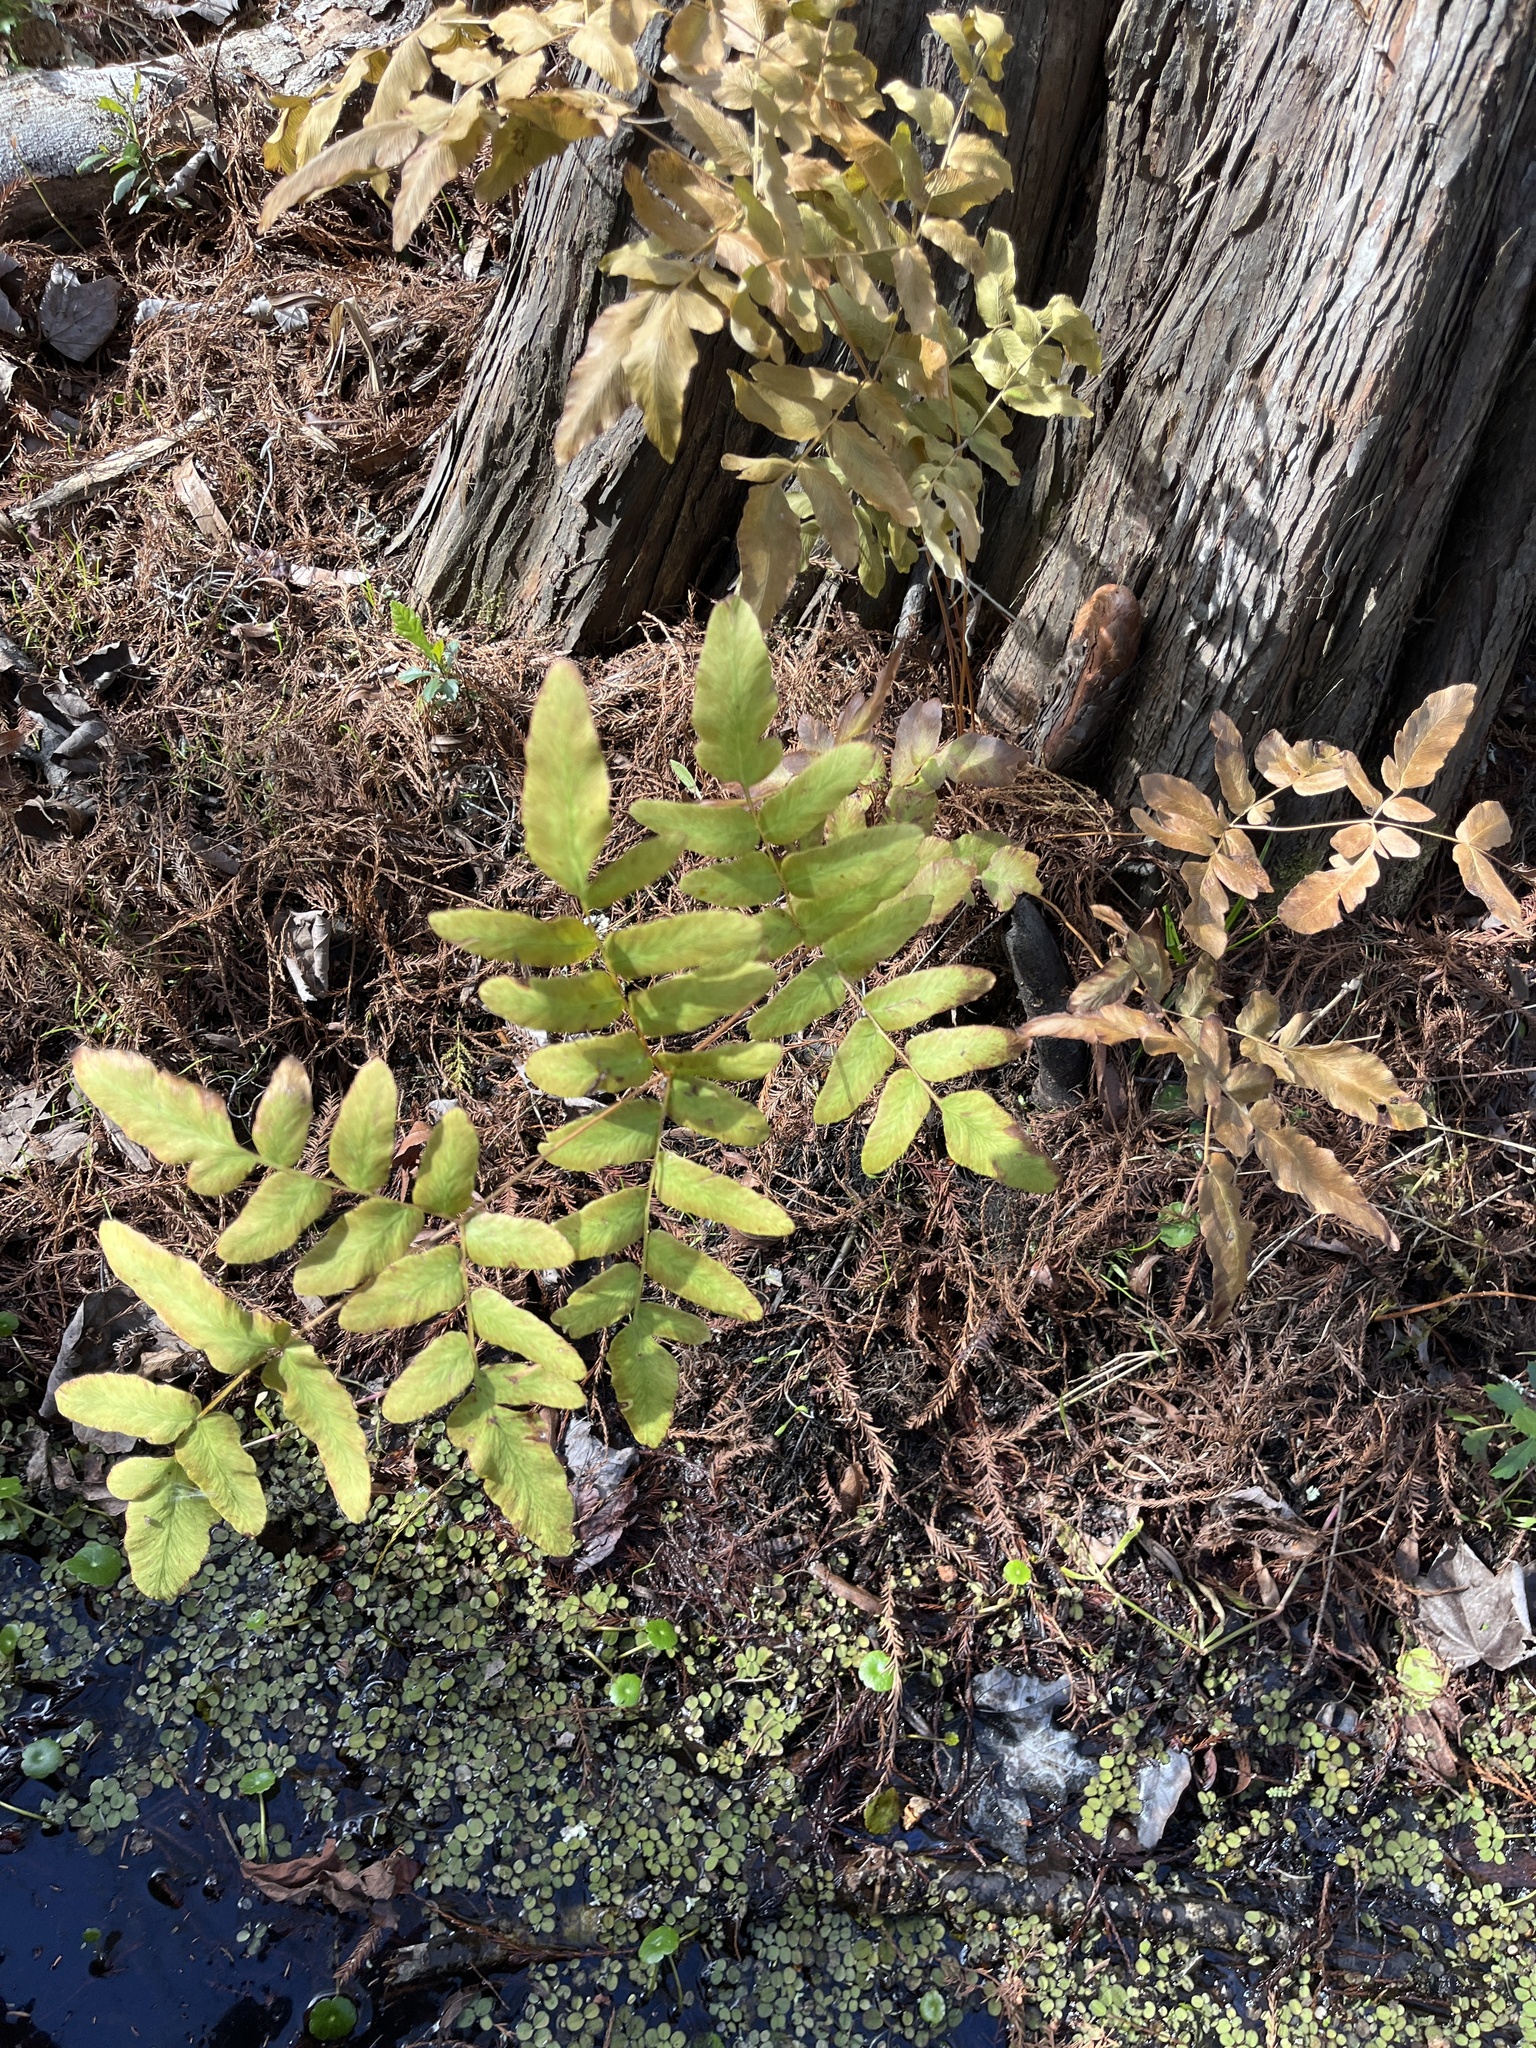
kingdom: Plantae
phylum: Tracheophyta
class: Polypodiopsida
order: Osmundales
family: Osmundaceae
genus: Osmunda
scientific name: Osmunda spectabilis
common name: American royal fern
